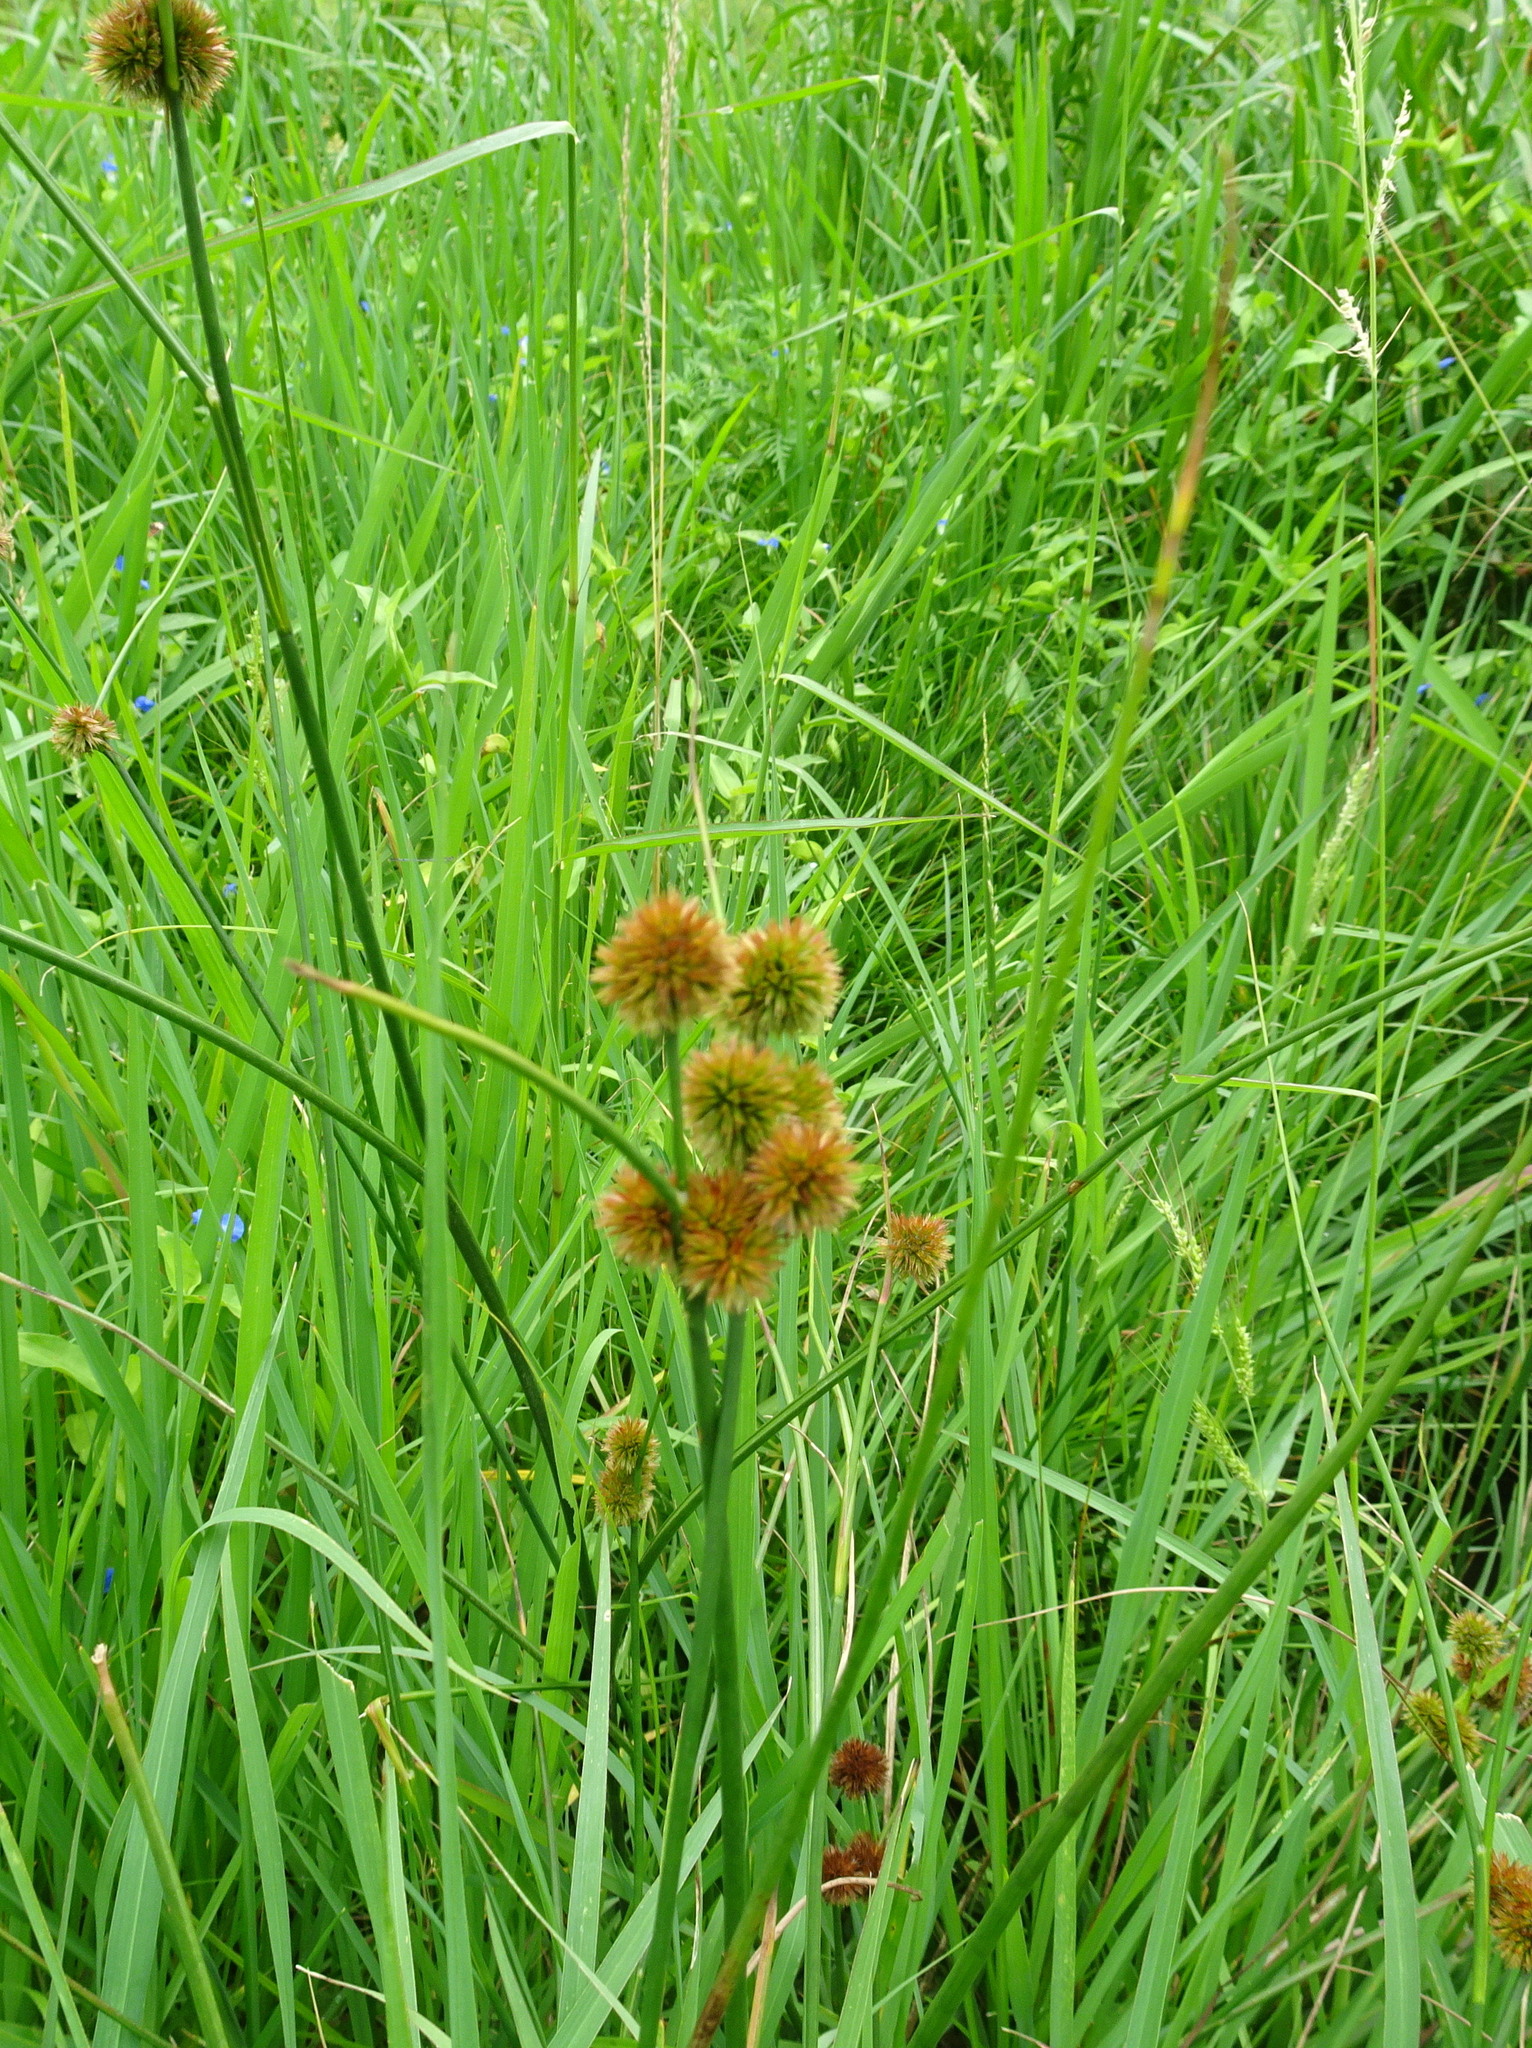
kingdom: Plantae
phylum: Tracheophyta
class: Liliopsida
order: Poales
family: Juncaceae
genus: Juncus
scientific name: Juncus torreyi
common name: Torrey's rush
